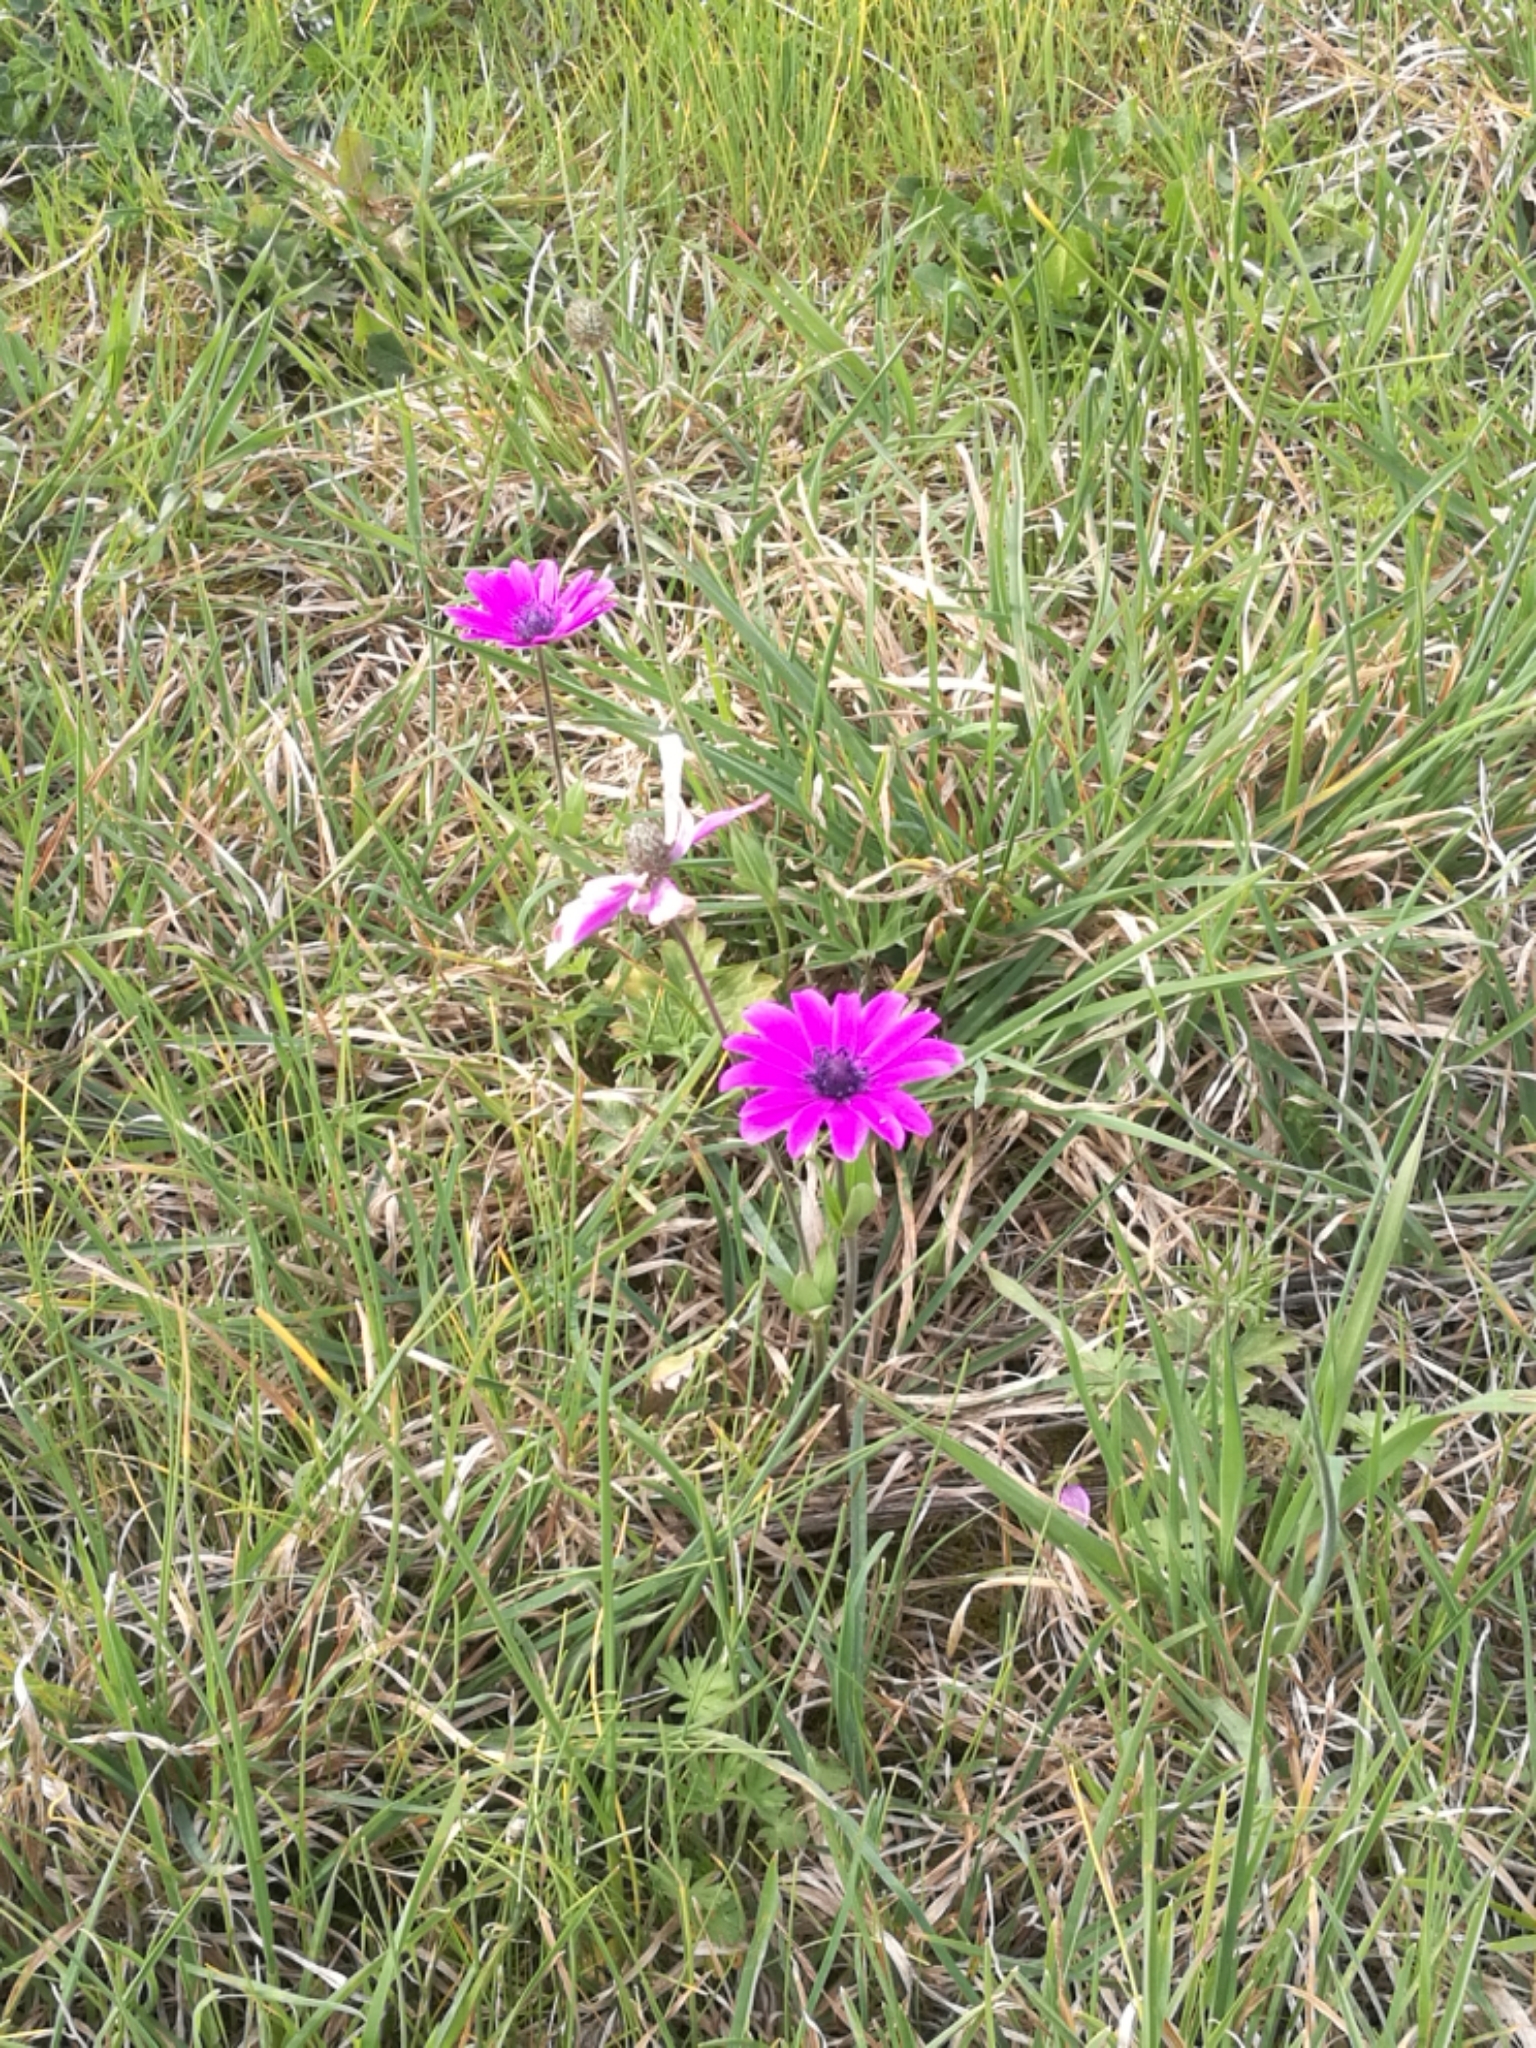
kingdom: Plantae
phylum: Tracheophyta
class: Magnoliopsida
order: Ranunculales
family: Ranunculaceae
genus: Anemone
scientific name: Anemone hortensis
